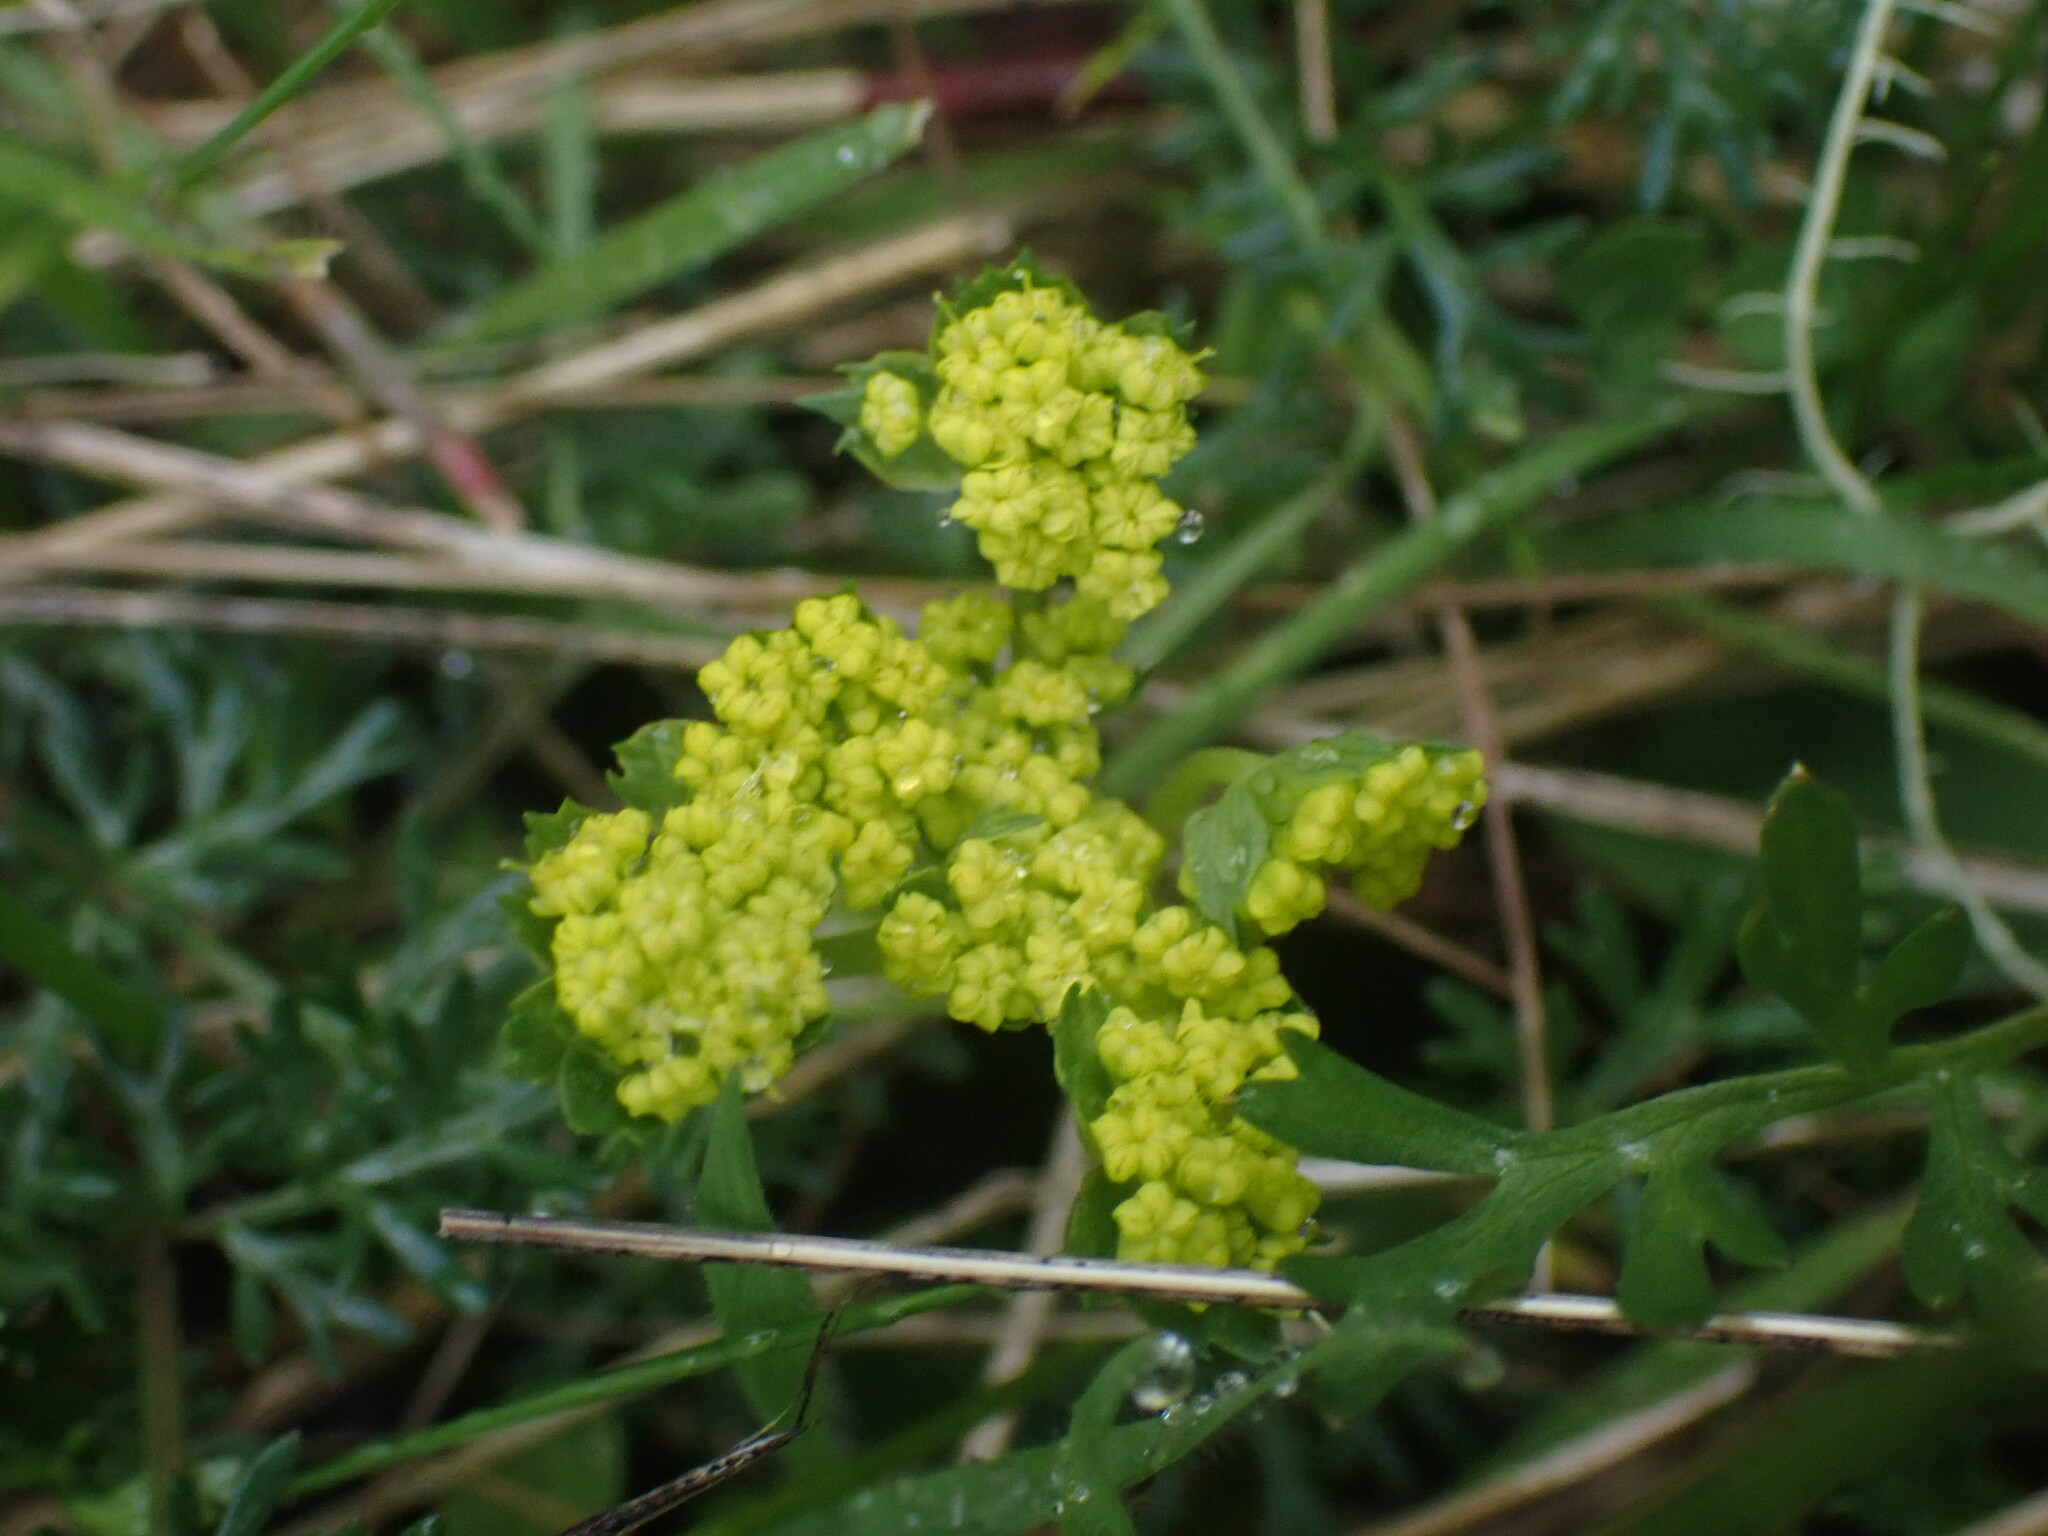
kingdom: Plantae
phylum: Tracheophyta
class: Magnoliopsida
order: Apiales
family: Apiaceae
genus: Lomatium
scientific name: Lomatium utriculatum
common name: Fine-leaf desert-parsley
